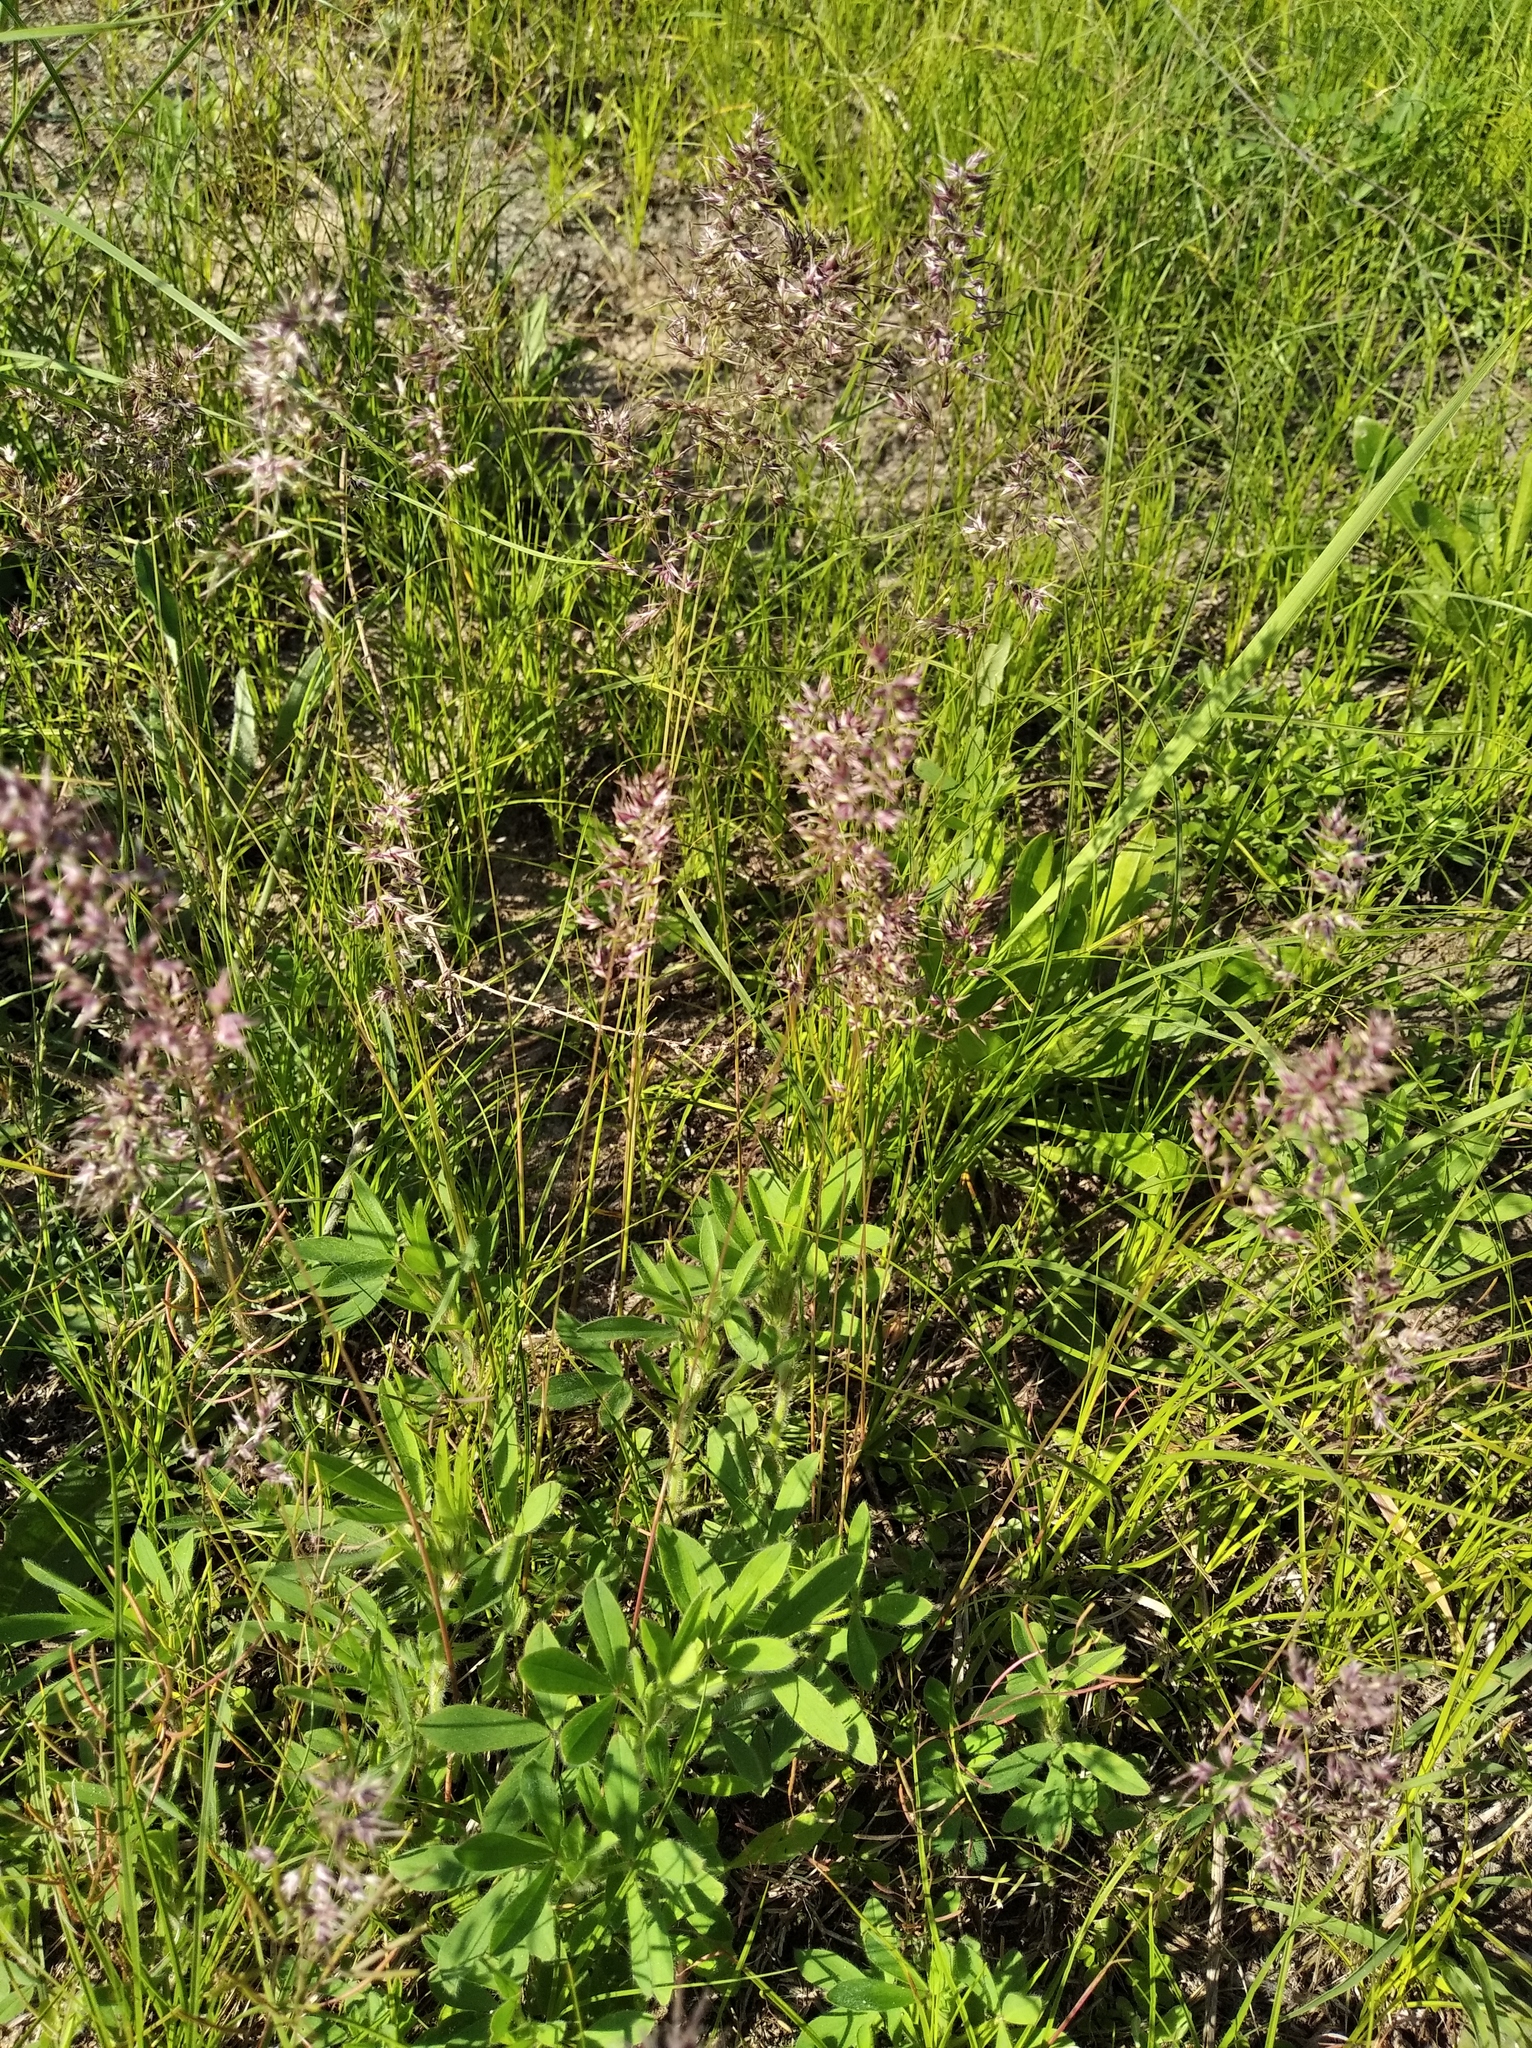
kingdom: Plantae
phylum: Tracheophyta
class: Liliopsida
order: Poales
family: Poaceae
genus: Poa
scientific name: Poa bulbosa
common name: Bulbous bluegrass
